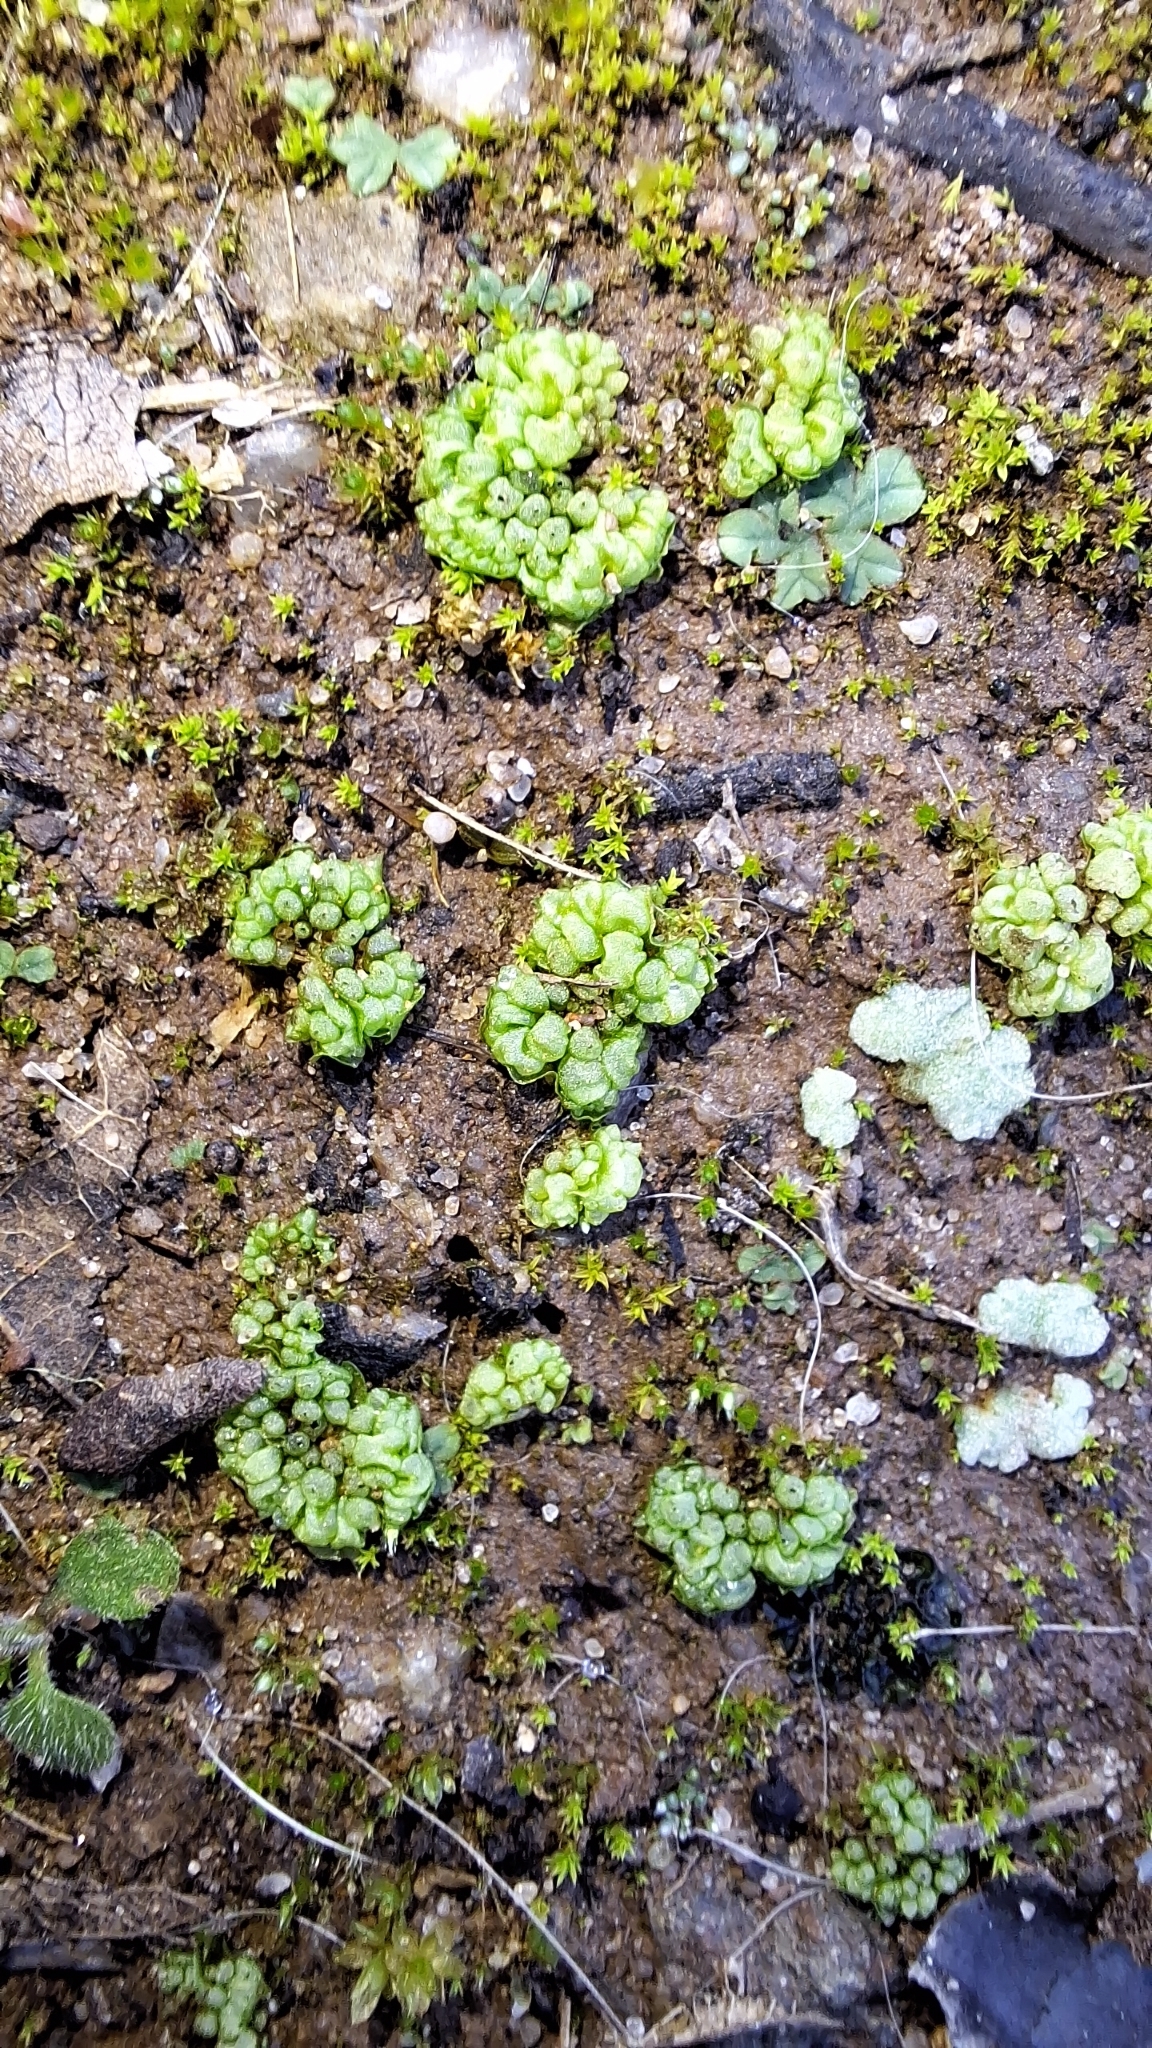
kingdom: Plantae
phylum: Marchantiophyta
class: Marchantiopsida
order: Sphaerocarpales
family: Sphaerocarpaceae
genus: Sphaerocarpos
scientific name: Sphaerocarpos texanus
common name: Texas balloonwort
